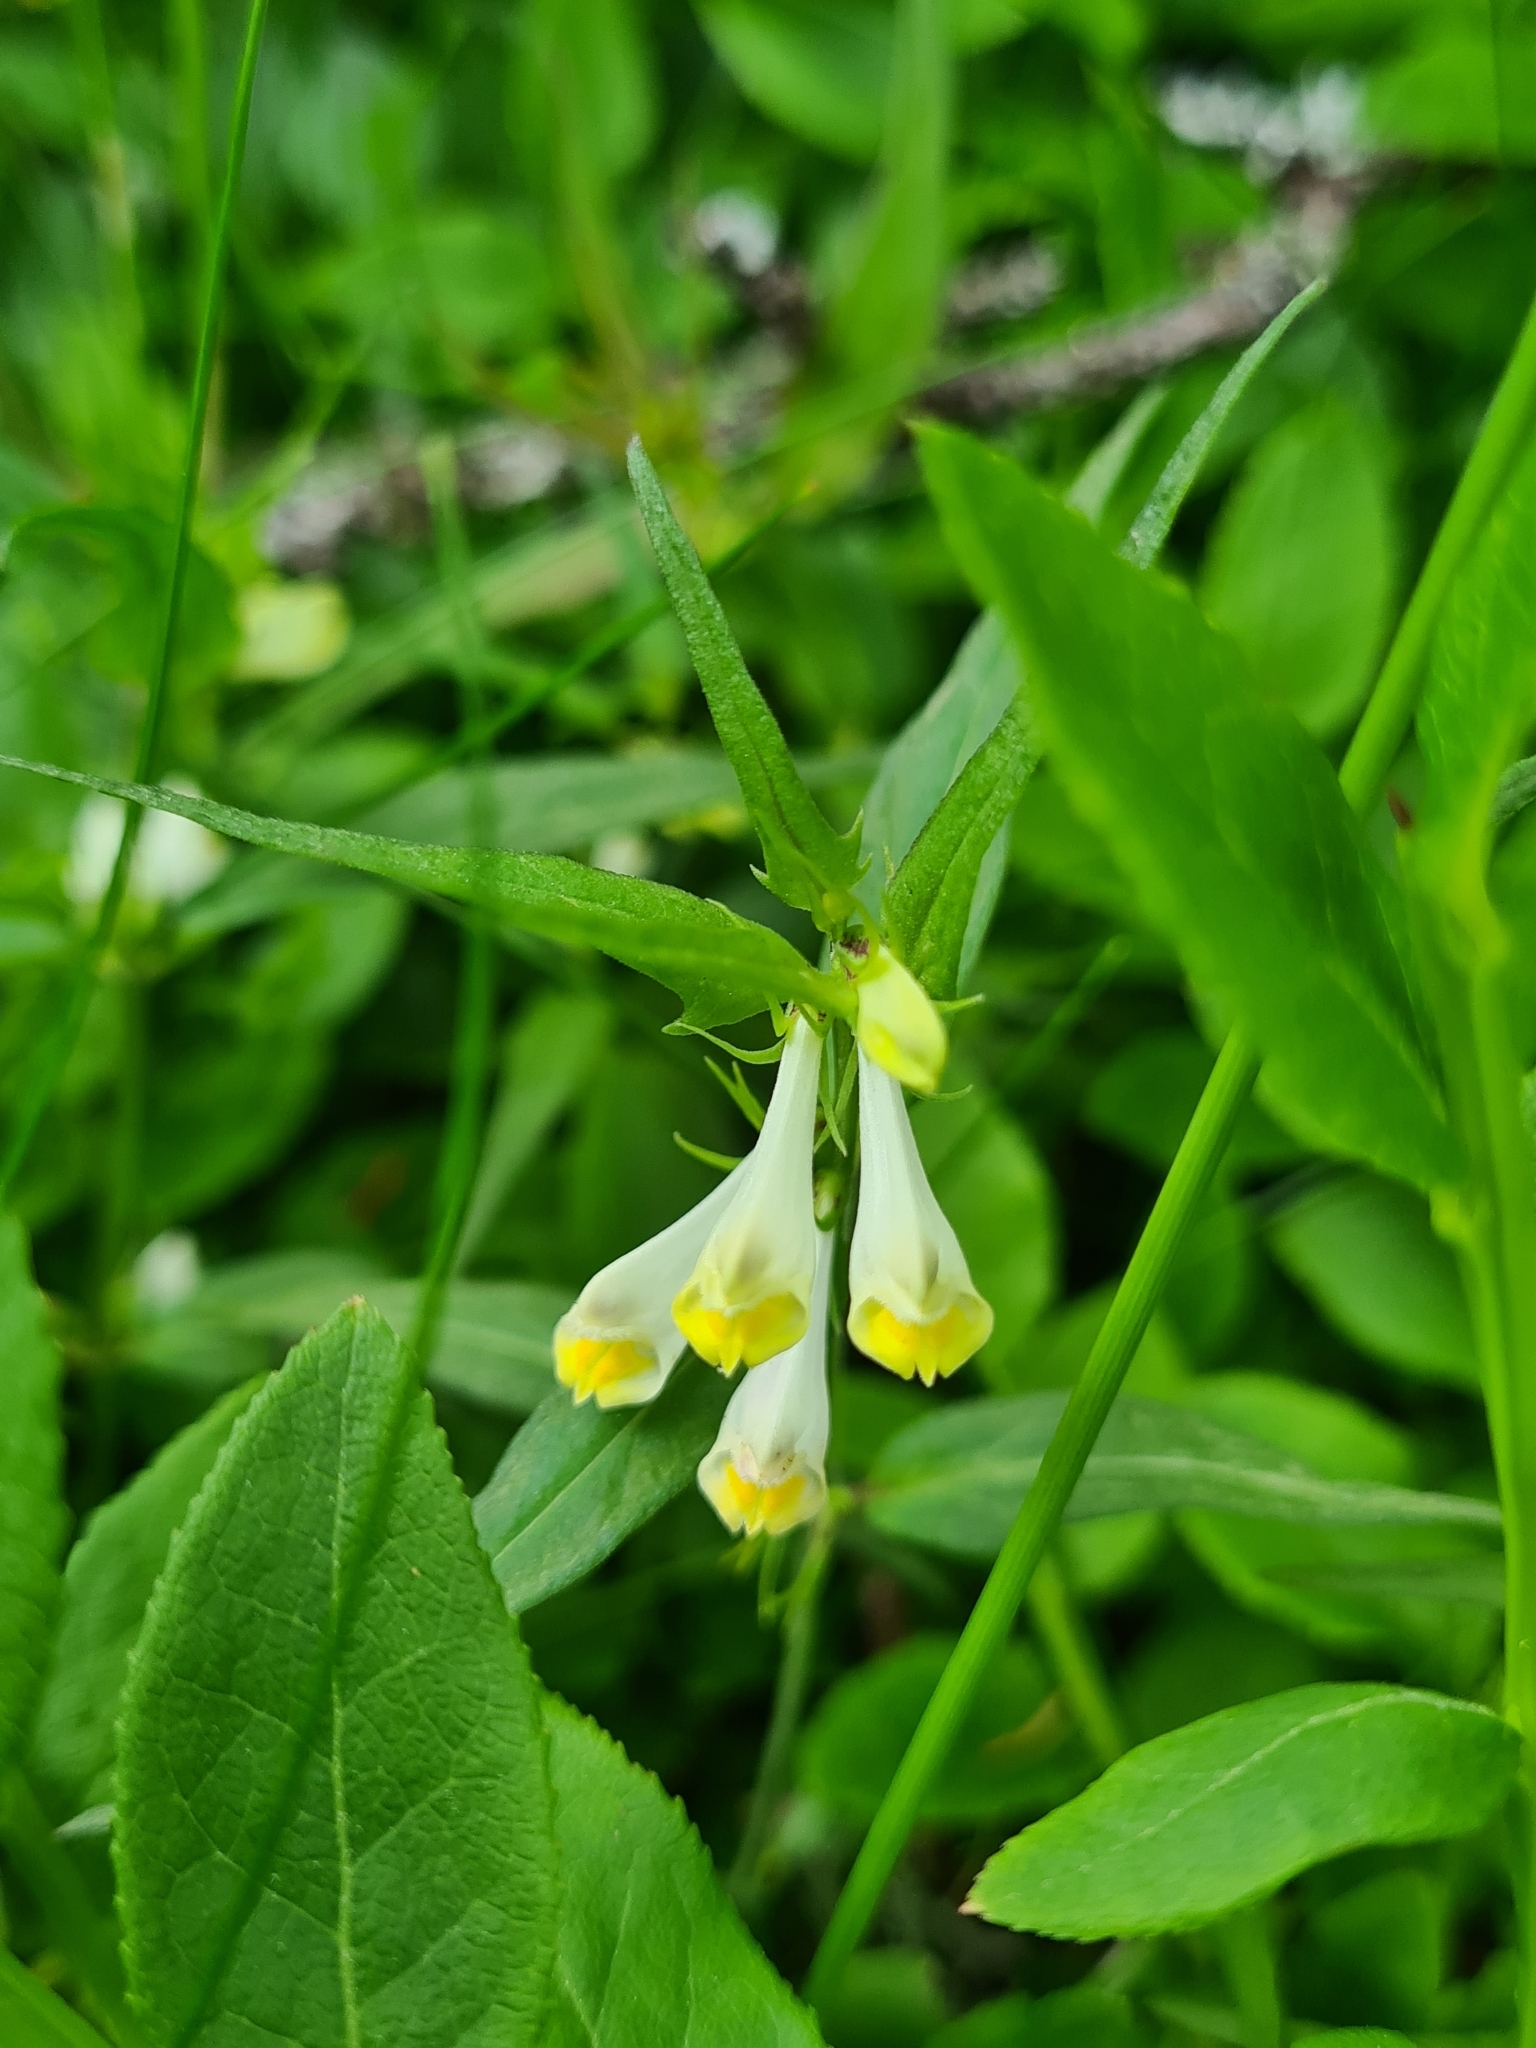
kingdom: Plantae
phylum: Tracheophyta
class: Magnoliopsida
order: Lamiales
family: Orobanchaceae
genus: Melampyrum
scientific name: Melampyrum pratense
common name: Common cow-wheat
